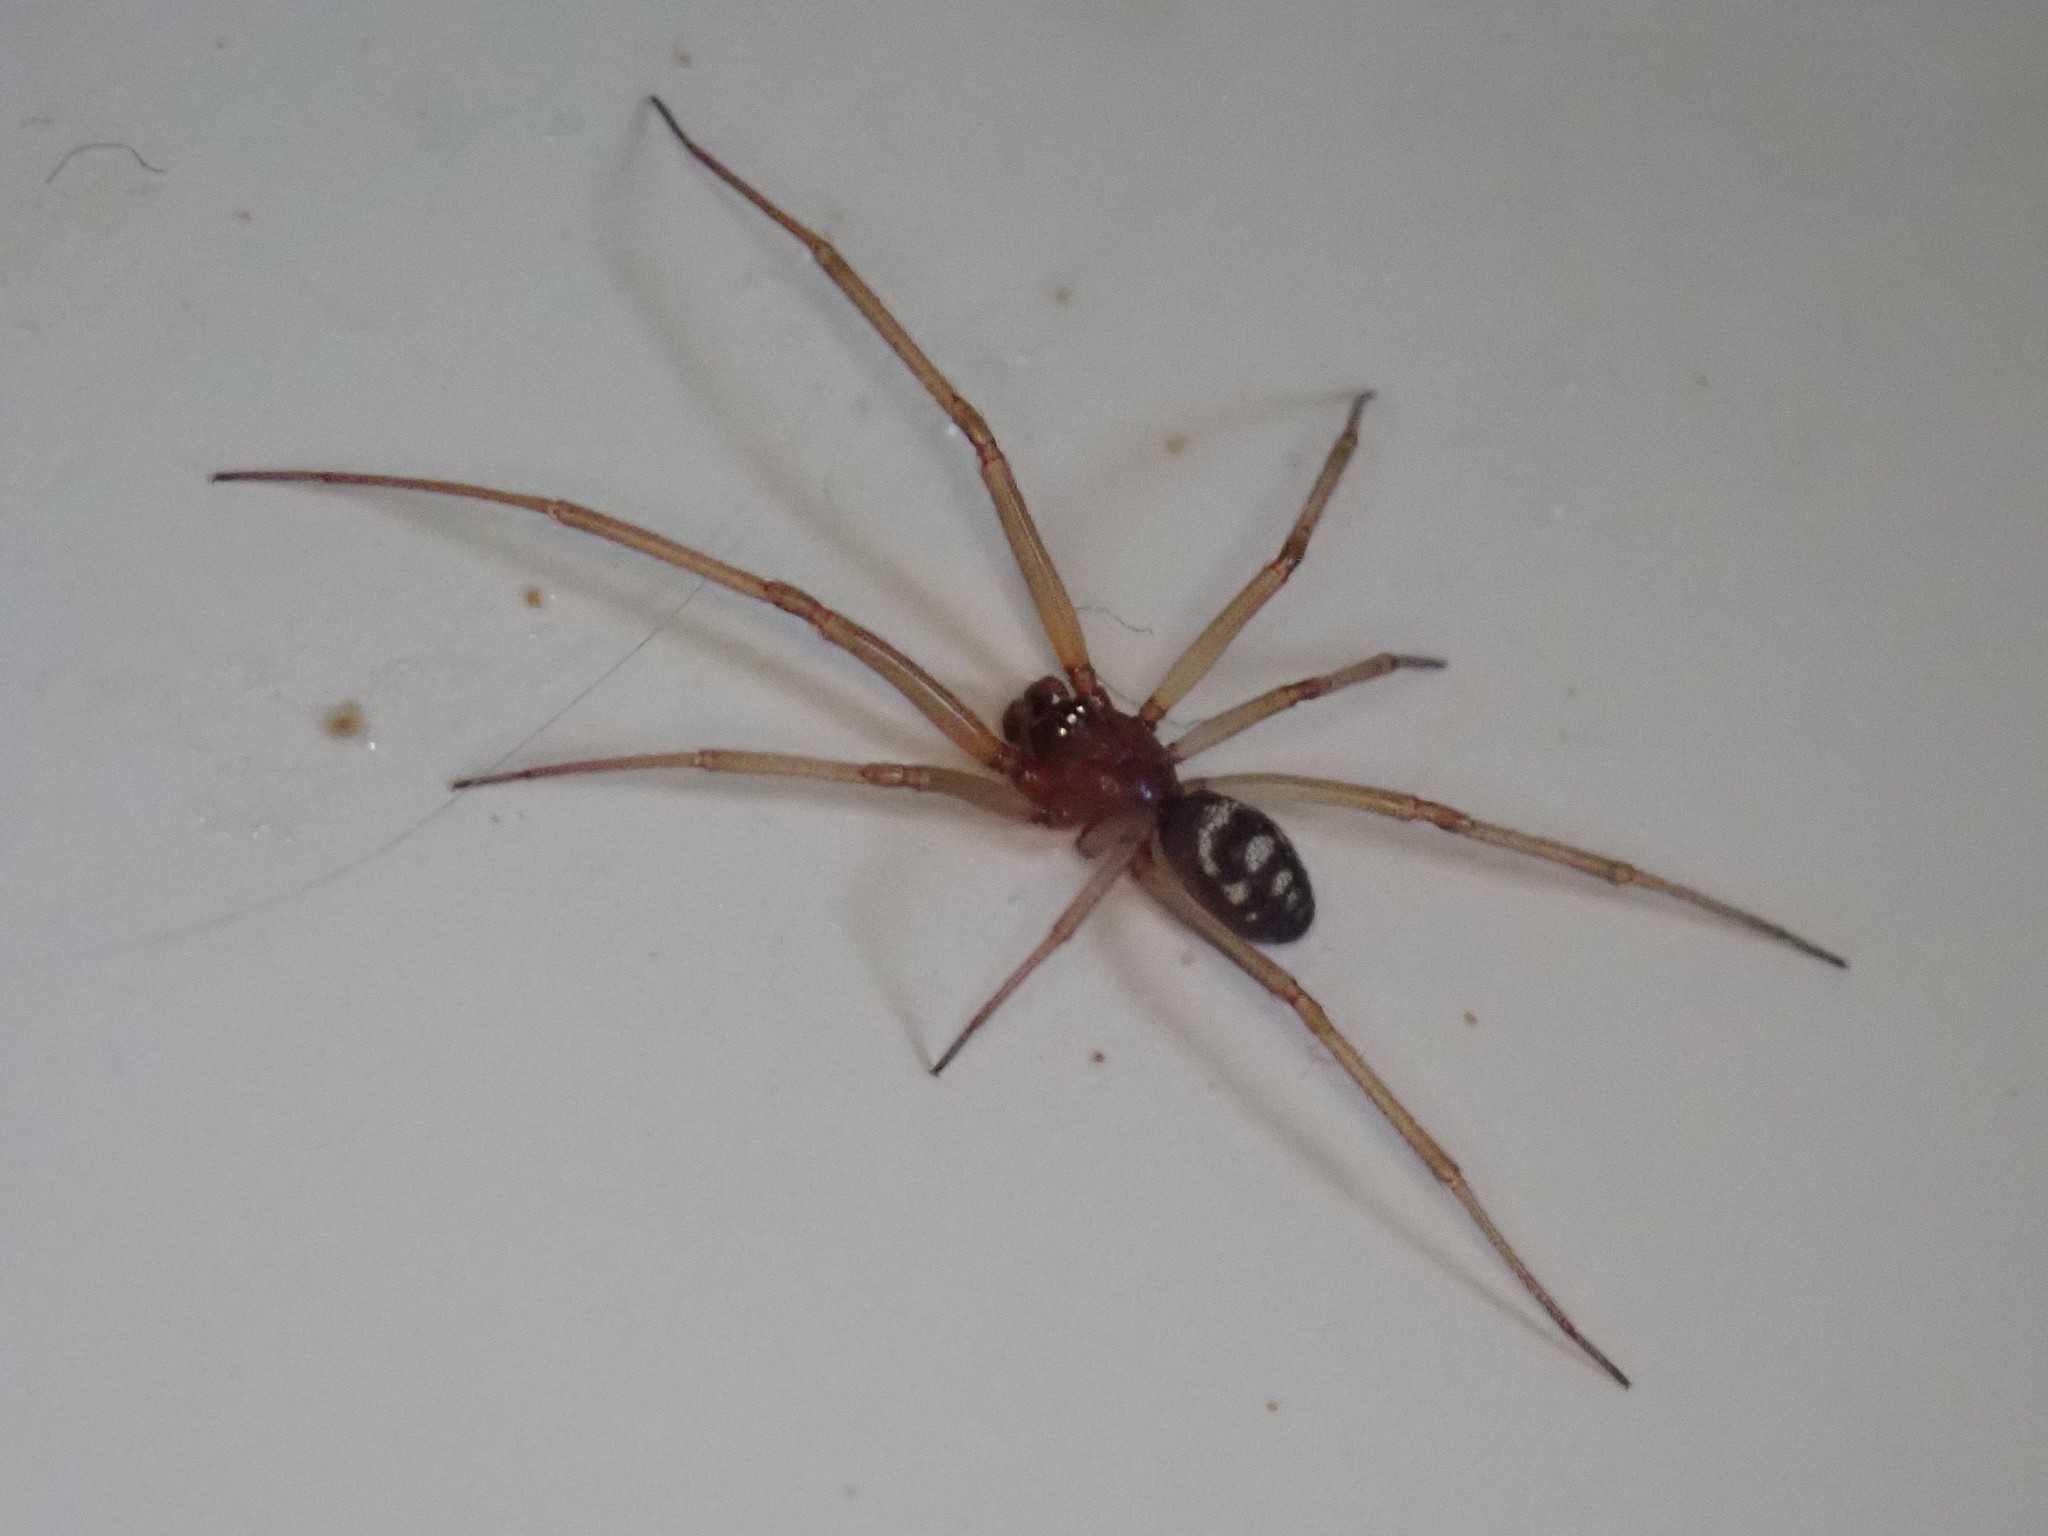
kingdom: Animalia
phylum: Arthropoda
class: Arachnida
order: Araneae
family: Theridiidae
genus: Steatoda
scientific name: Steatoda grossa
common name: False black widow
